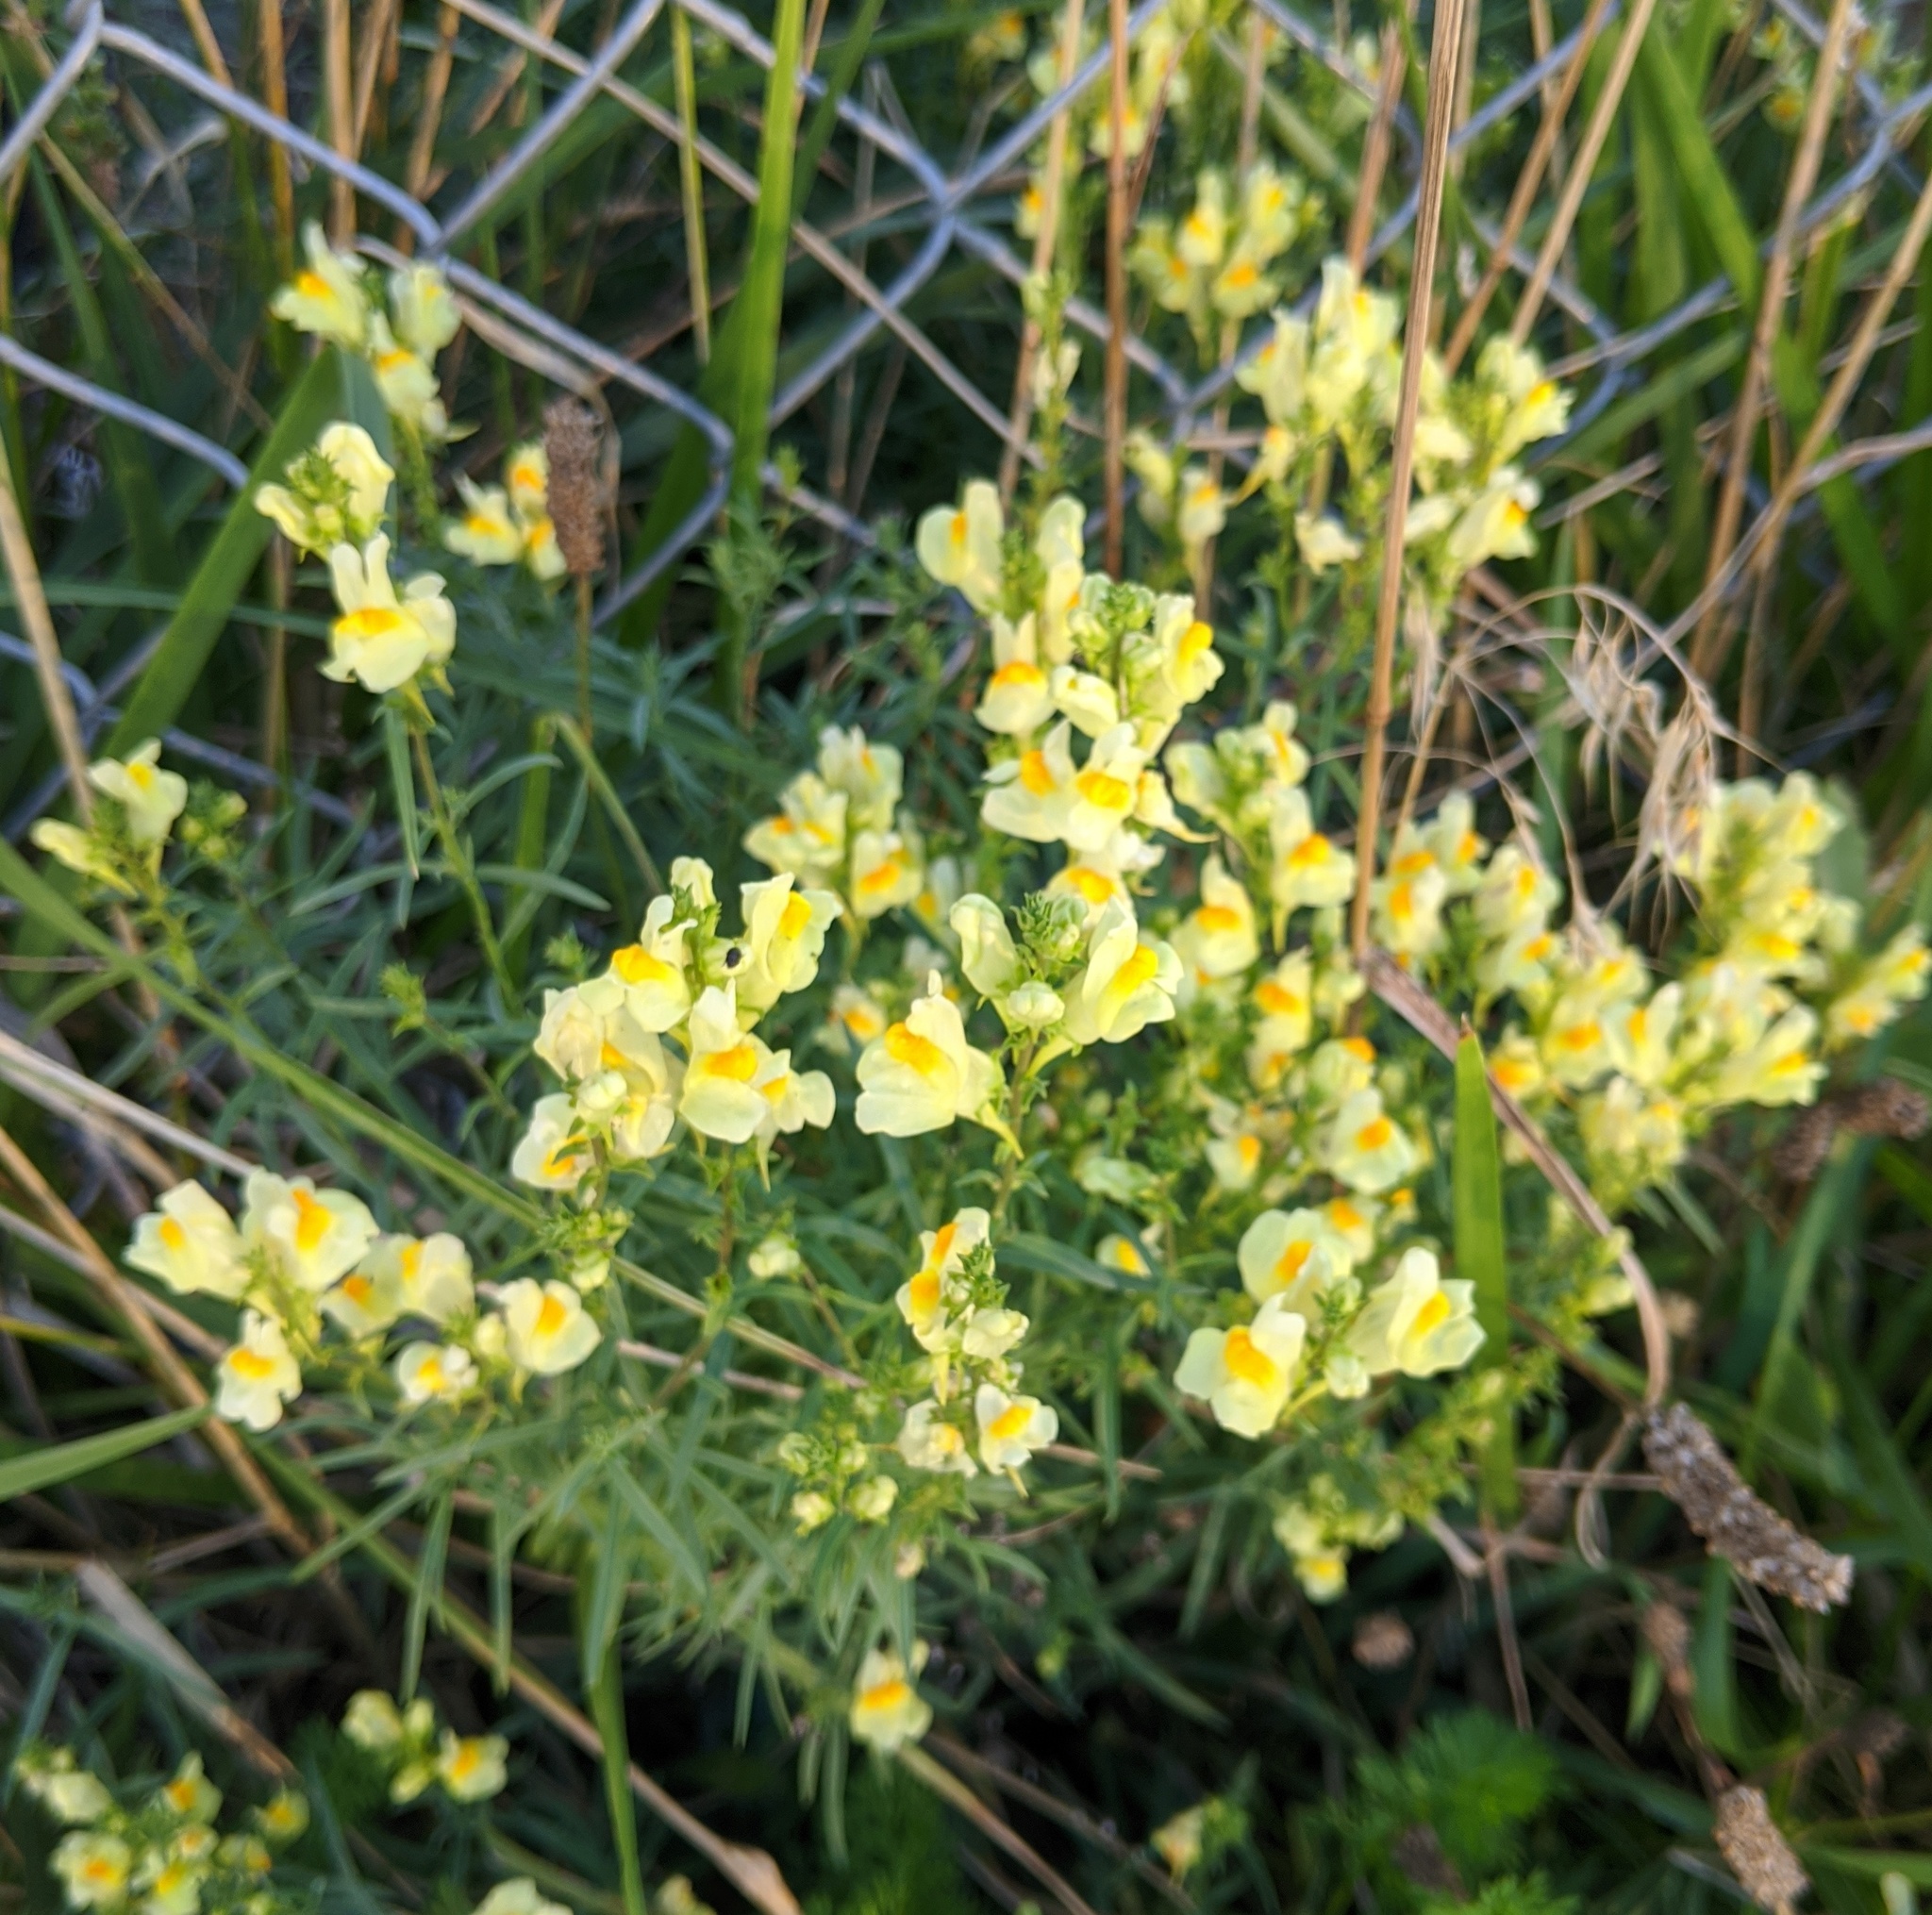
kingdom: Plantae
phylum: Tracheophyta
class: Magnoliopsida
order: Lamiales
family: Plantaginaceae
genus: Linaria
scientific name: Linaria vulgaris
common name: Butter and eggs
